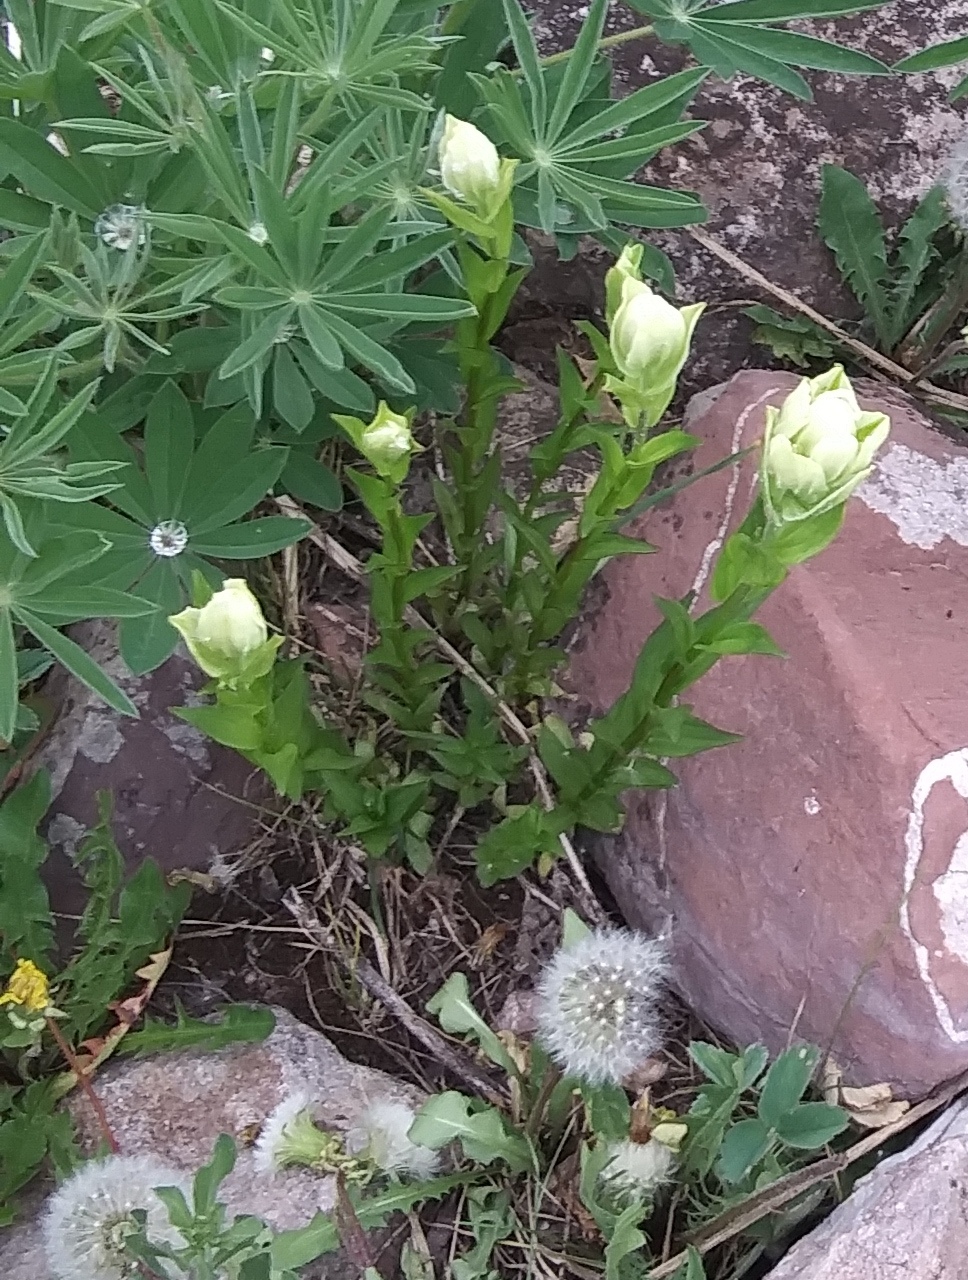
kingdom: Plantae
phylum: Tracheophyta
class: Magnoliopsida
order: Lamiales
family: Orobanchaceae
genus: Castilleja
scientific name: Castilleja septentrionalis
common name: Northeastern paintbrush
